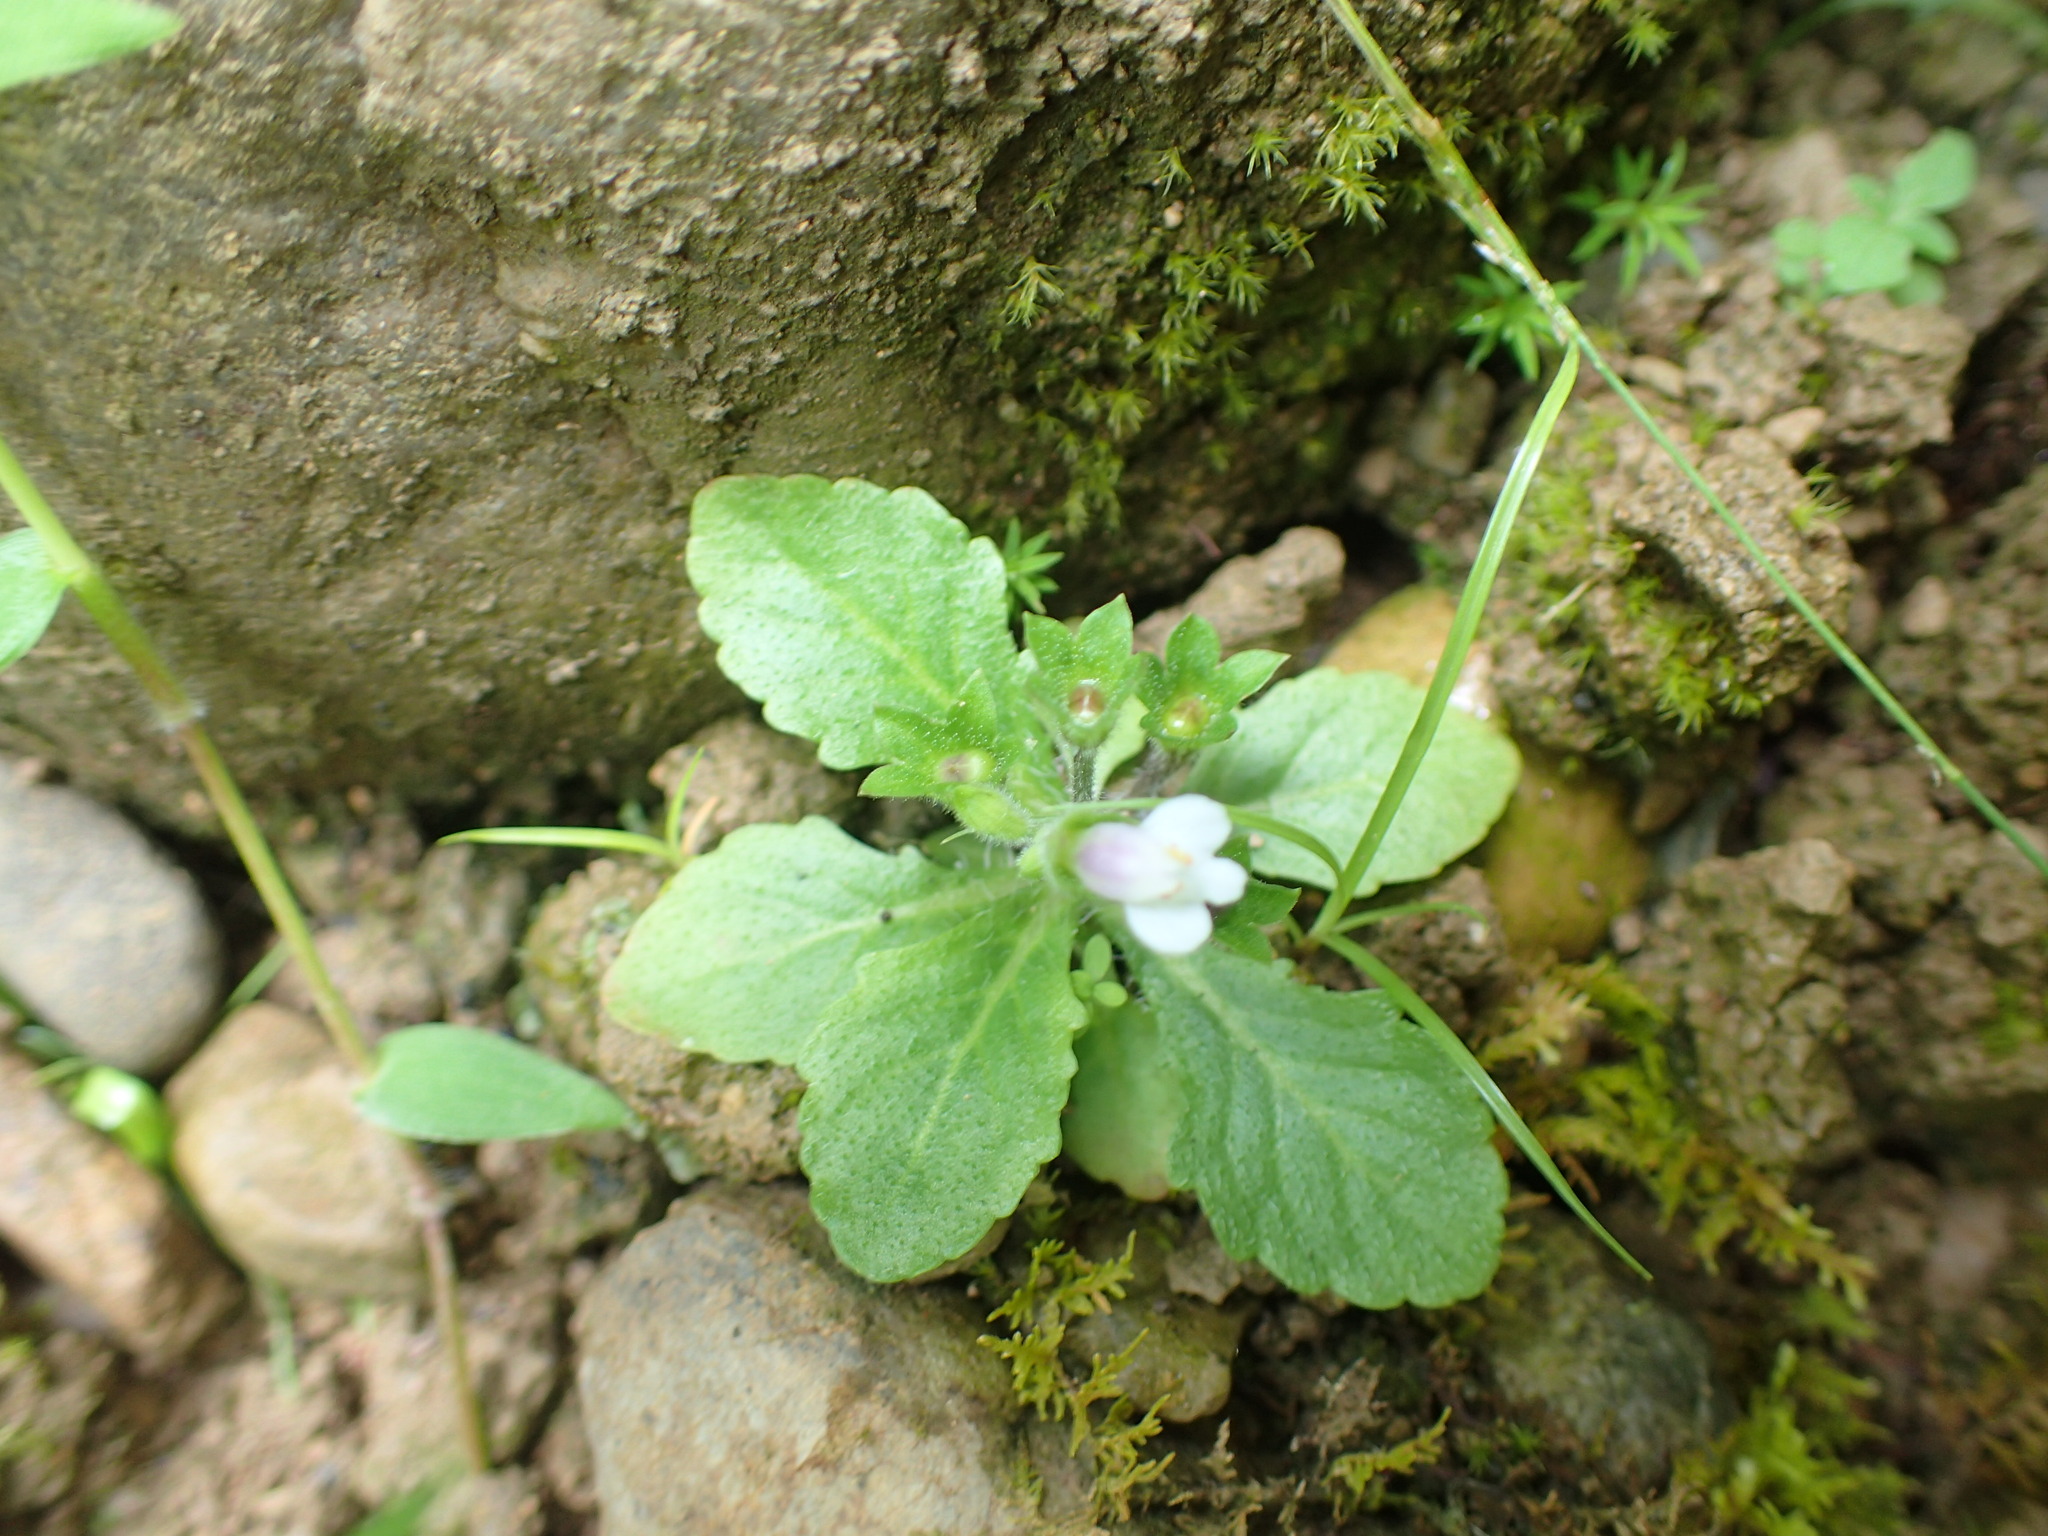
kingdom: Plantae
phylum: Tracheophyta
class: Magnoliopsida
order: Lamiales
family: Mazaceae
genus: Mazus
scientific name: Mazus goodeniifolius
